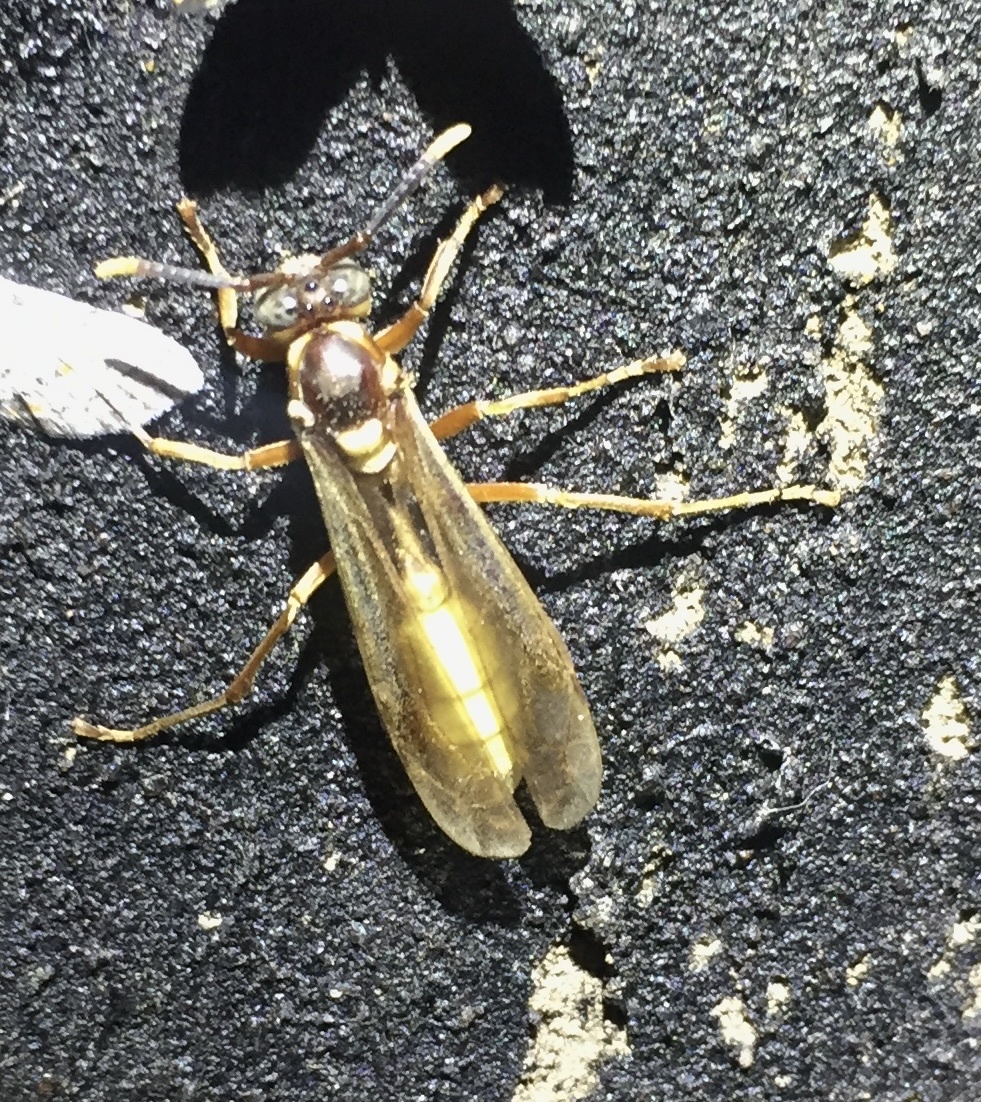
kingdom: Animalia
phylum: Arthropoda
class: Insecta
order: Hymenoptera
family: Vespidae
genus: Apoica
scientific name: Apoica pallens
